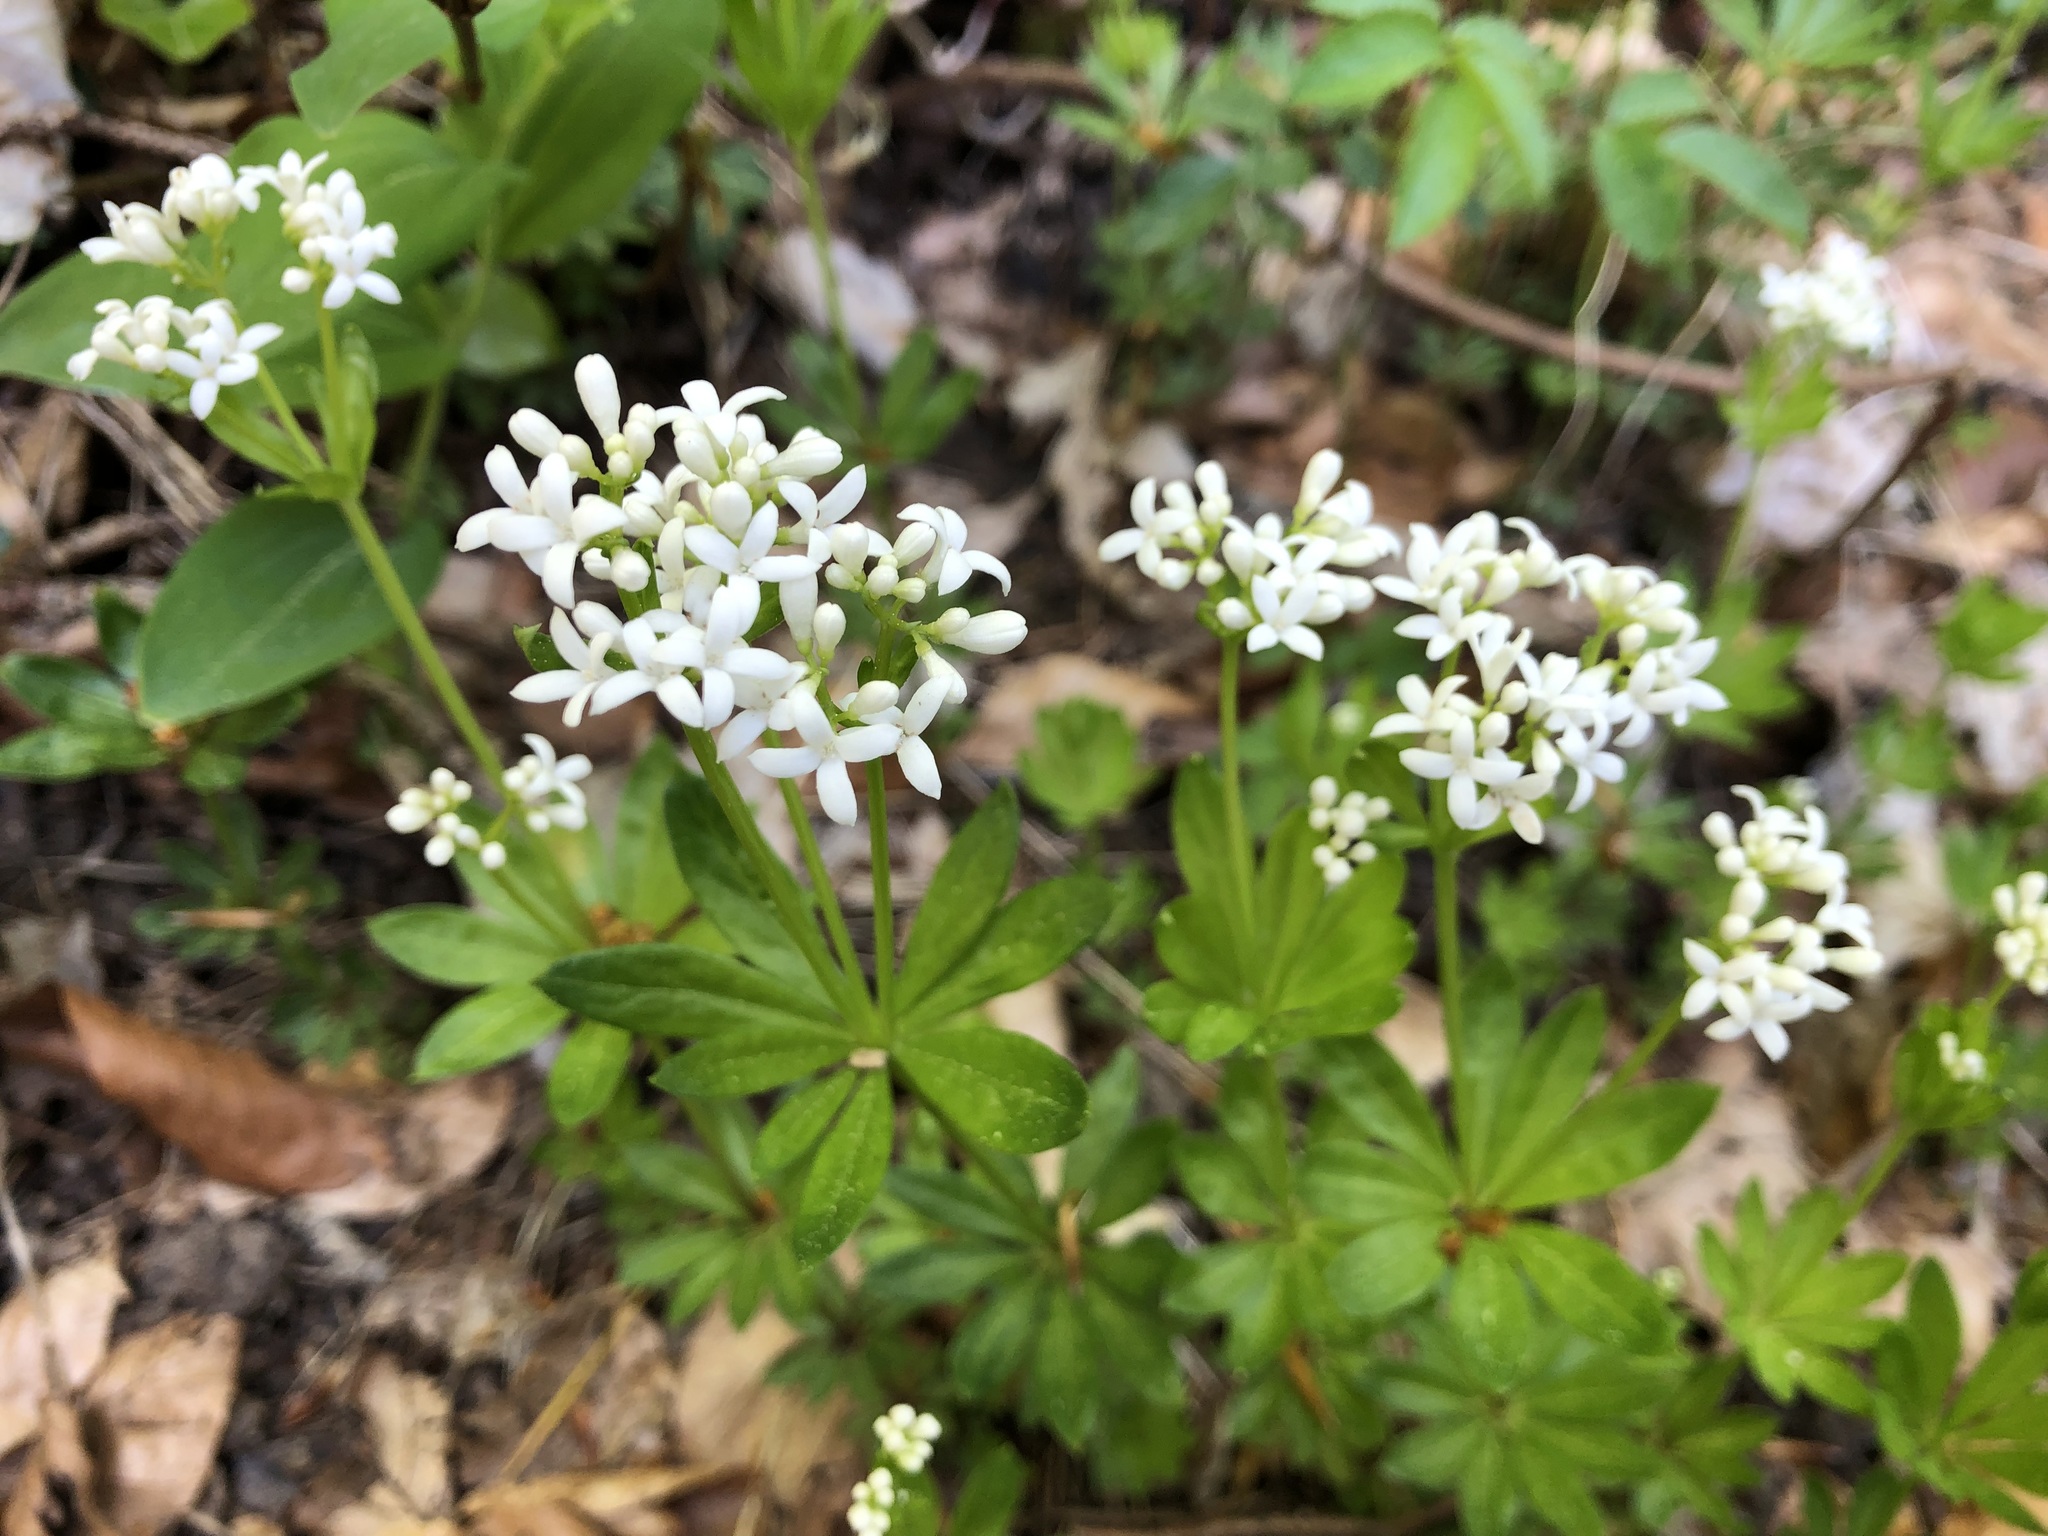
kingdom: Plantae
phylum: Tracheophyta
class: Magnoliopsida
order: Gentianales
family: Rubiaceae
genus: Galium
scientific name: Galium odoratum
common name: Sweet woodruff
